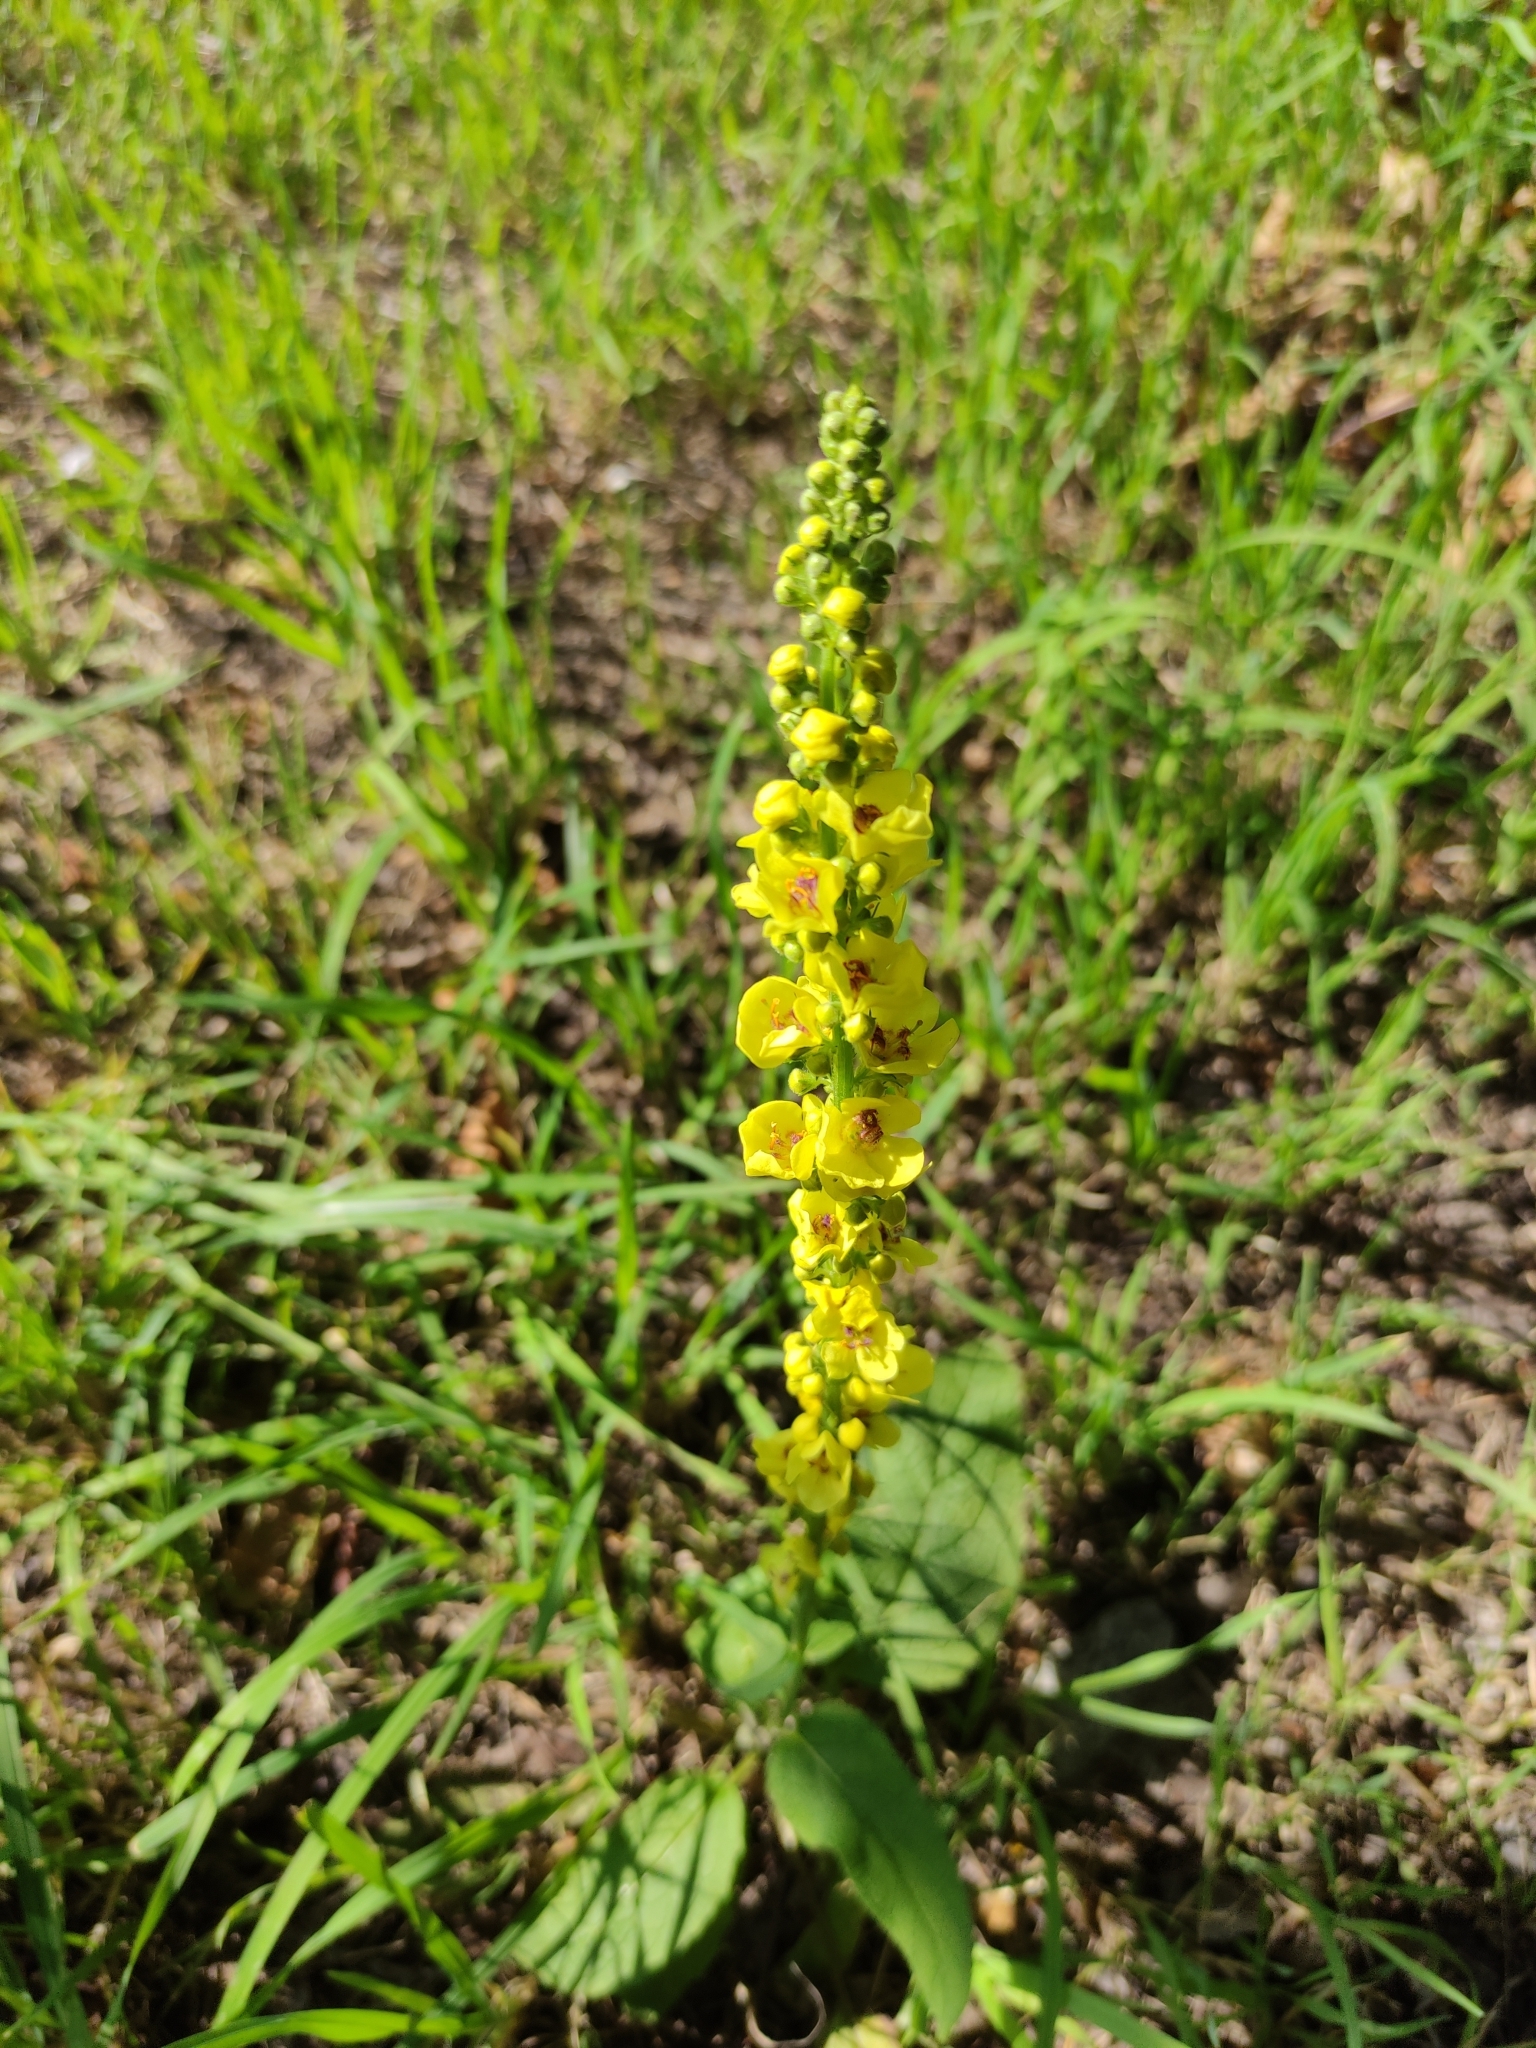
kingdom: Plantae
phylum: Tracheophyta
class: Magnoliopsida
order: Lamiales
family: Scrophulariaceae
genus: Verbascum
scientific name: Verbascum nigrum
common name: Dark mullein
